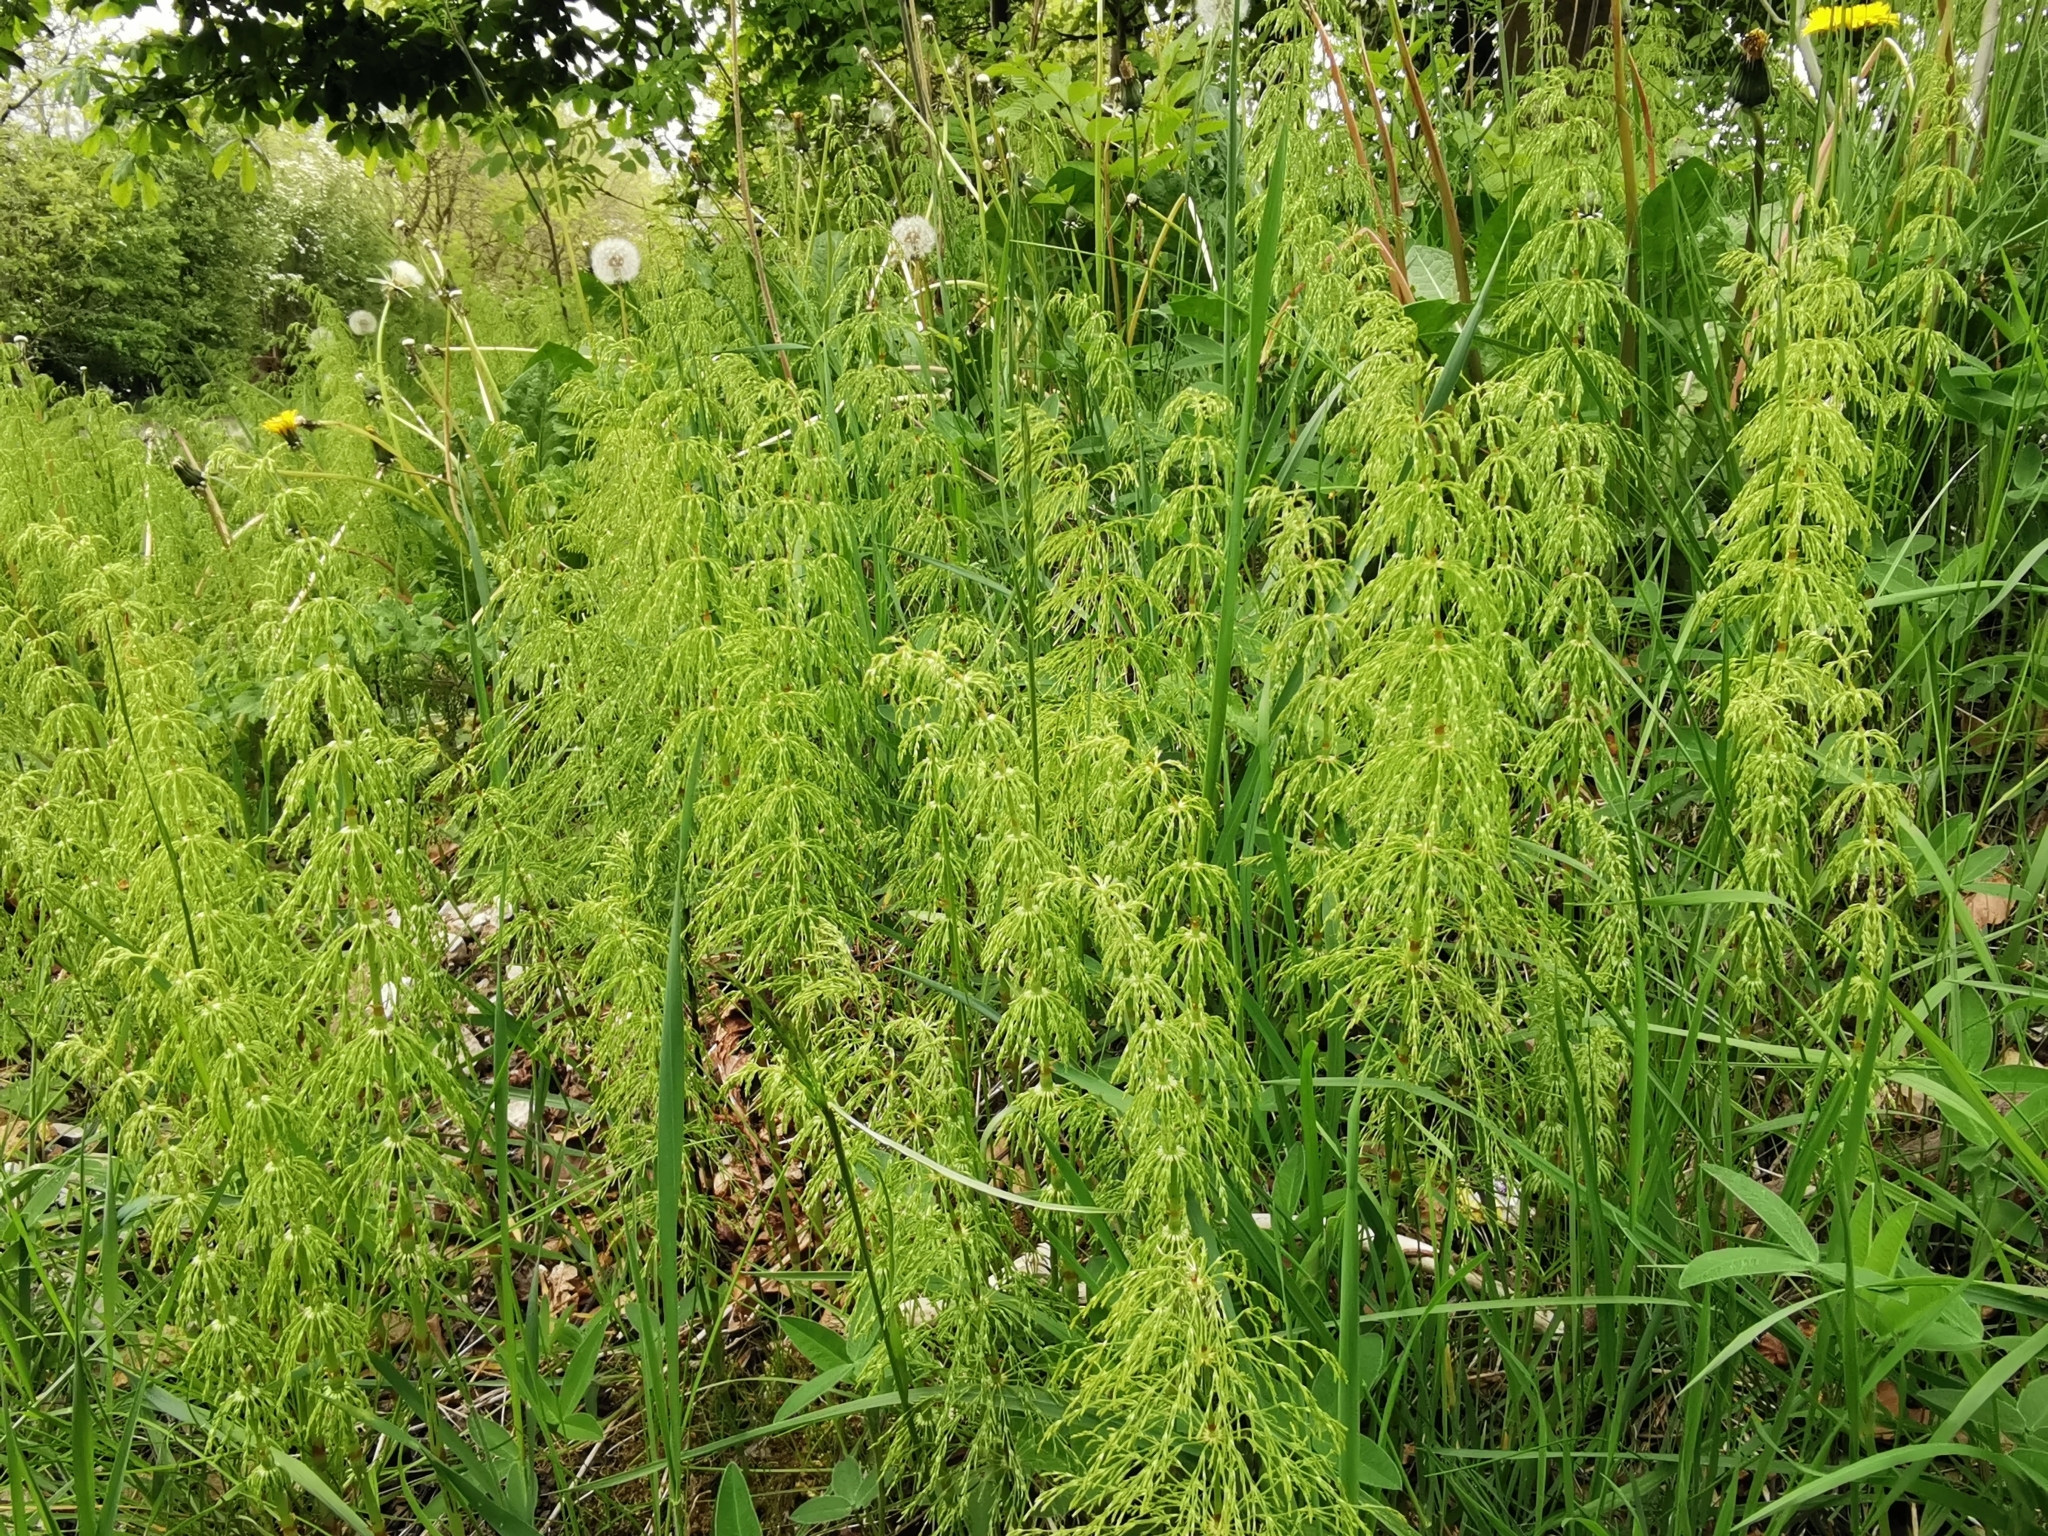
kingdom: Plantae
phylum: Tracheophyta
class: Polypodiopsida
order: Equisetales
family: Equisetaceae
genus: Equisetum
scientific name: Equisetum sylvaticum
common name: Wood horsetail
